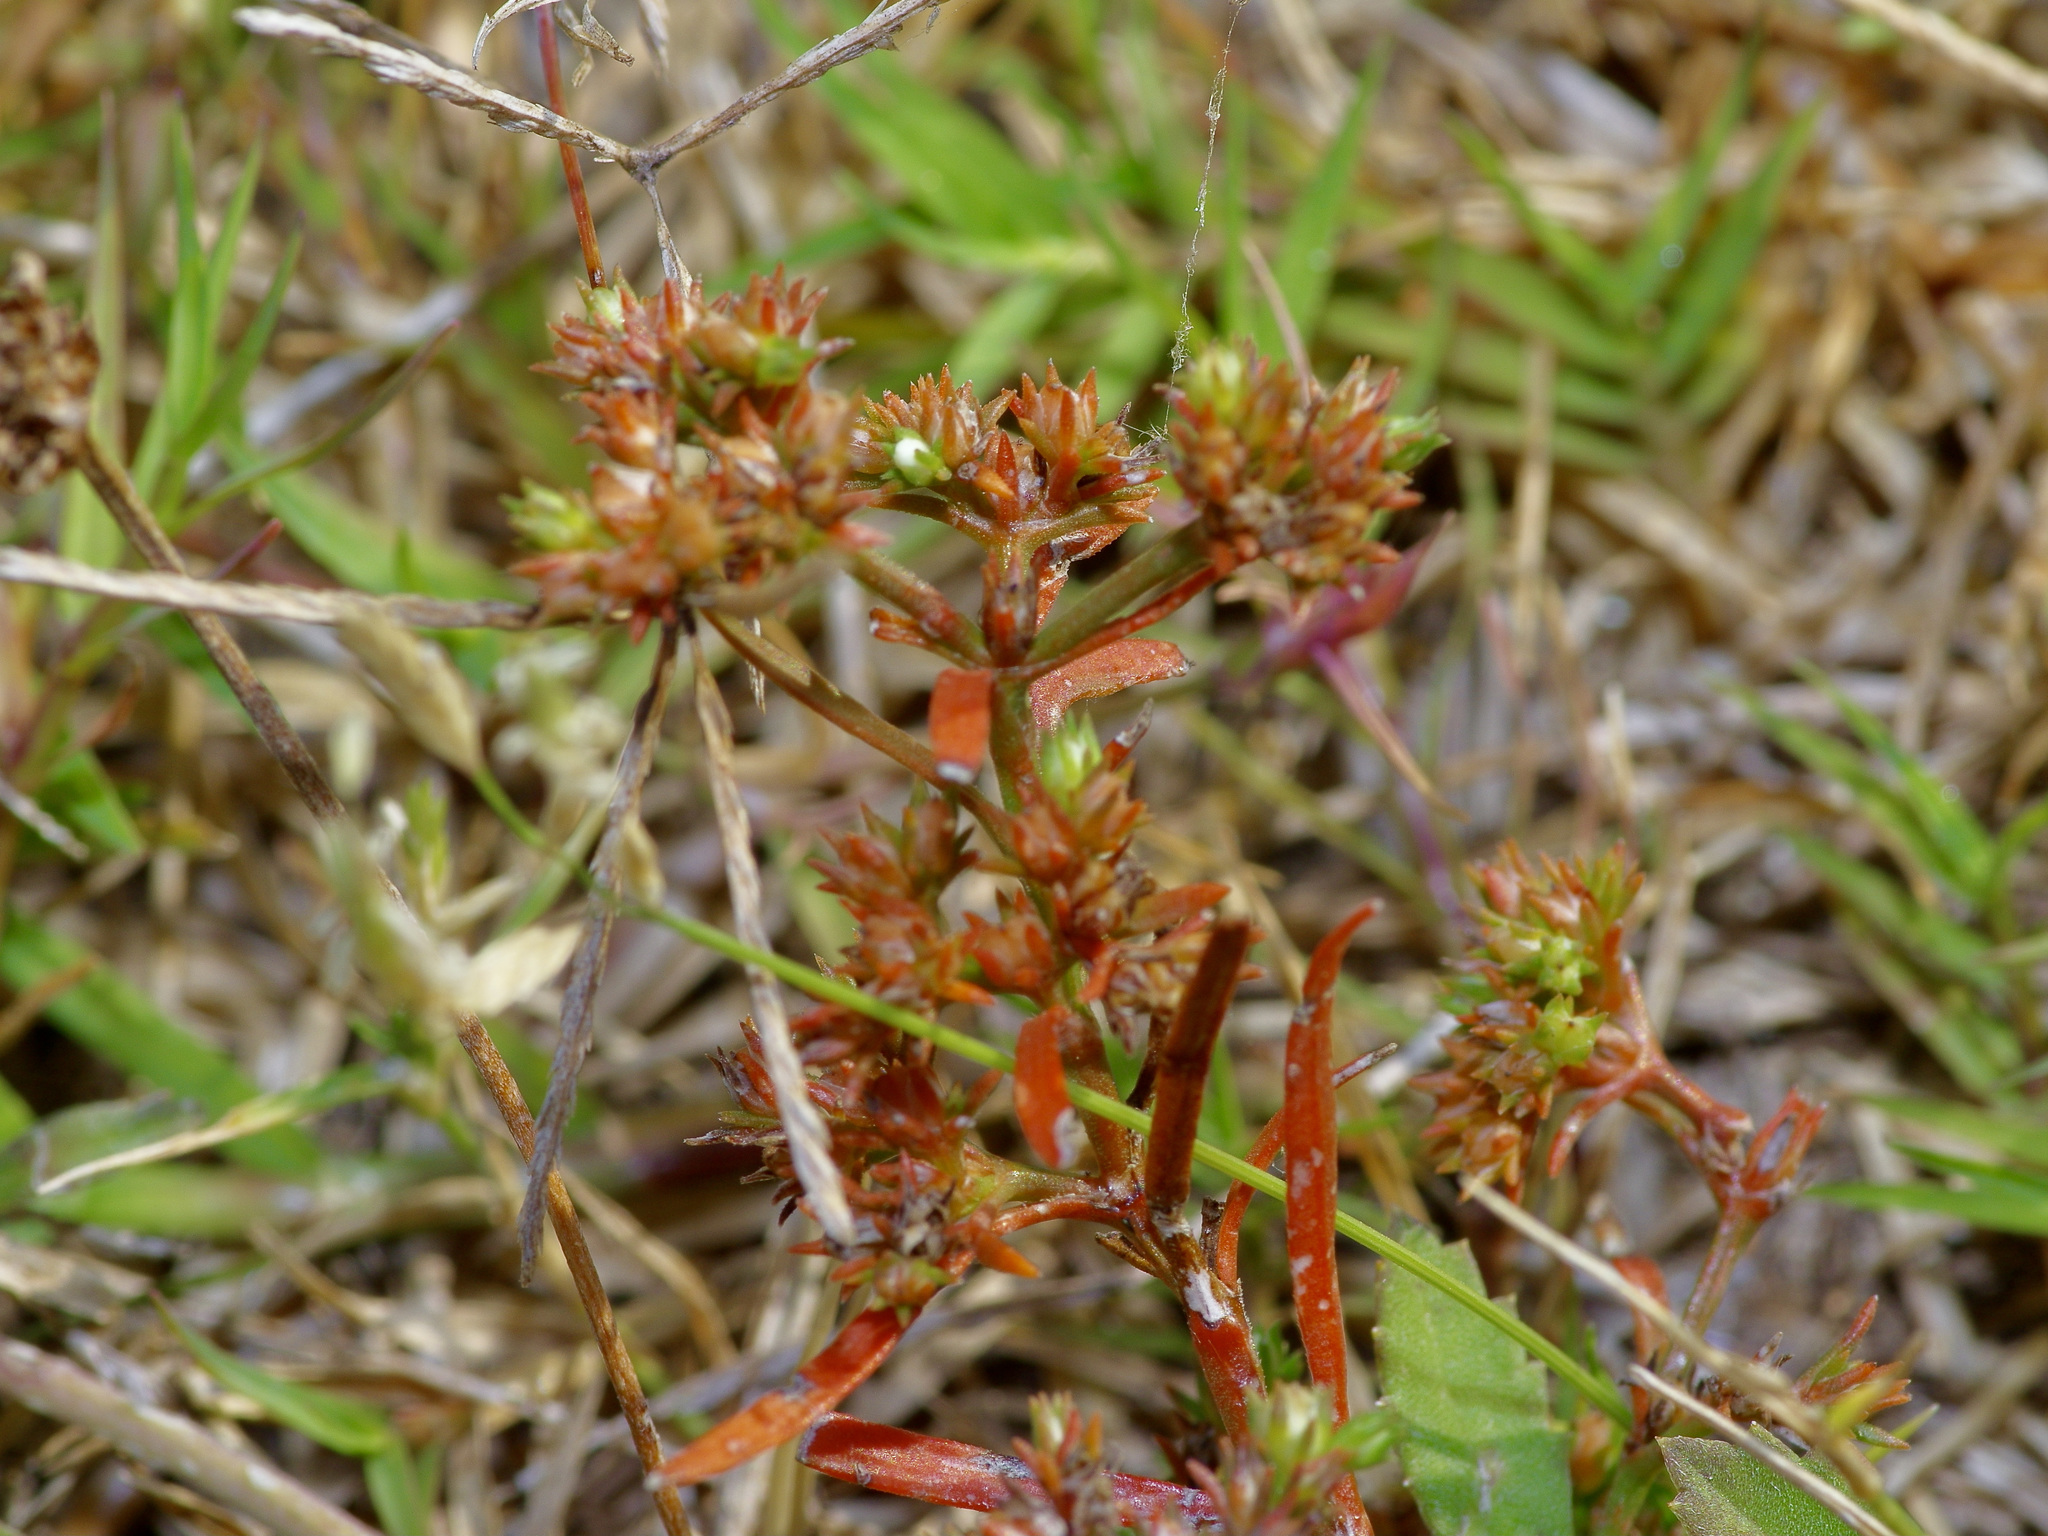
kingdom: Plantae
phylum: Tracheophyta
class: Magnoliopsida
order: Lamiales
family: Tetrachondraceae
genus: Polypremum
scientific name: Polypremum procumbens
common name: Juniper-leaf
